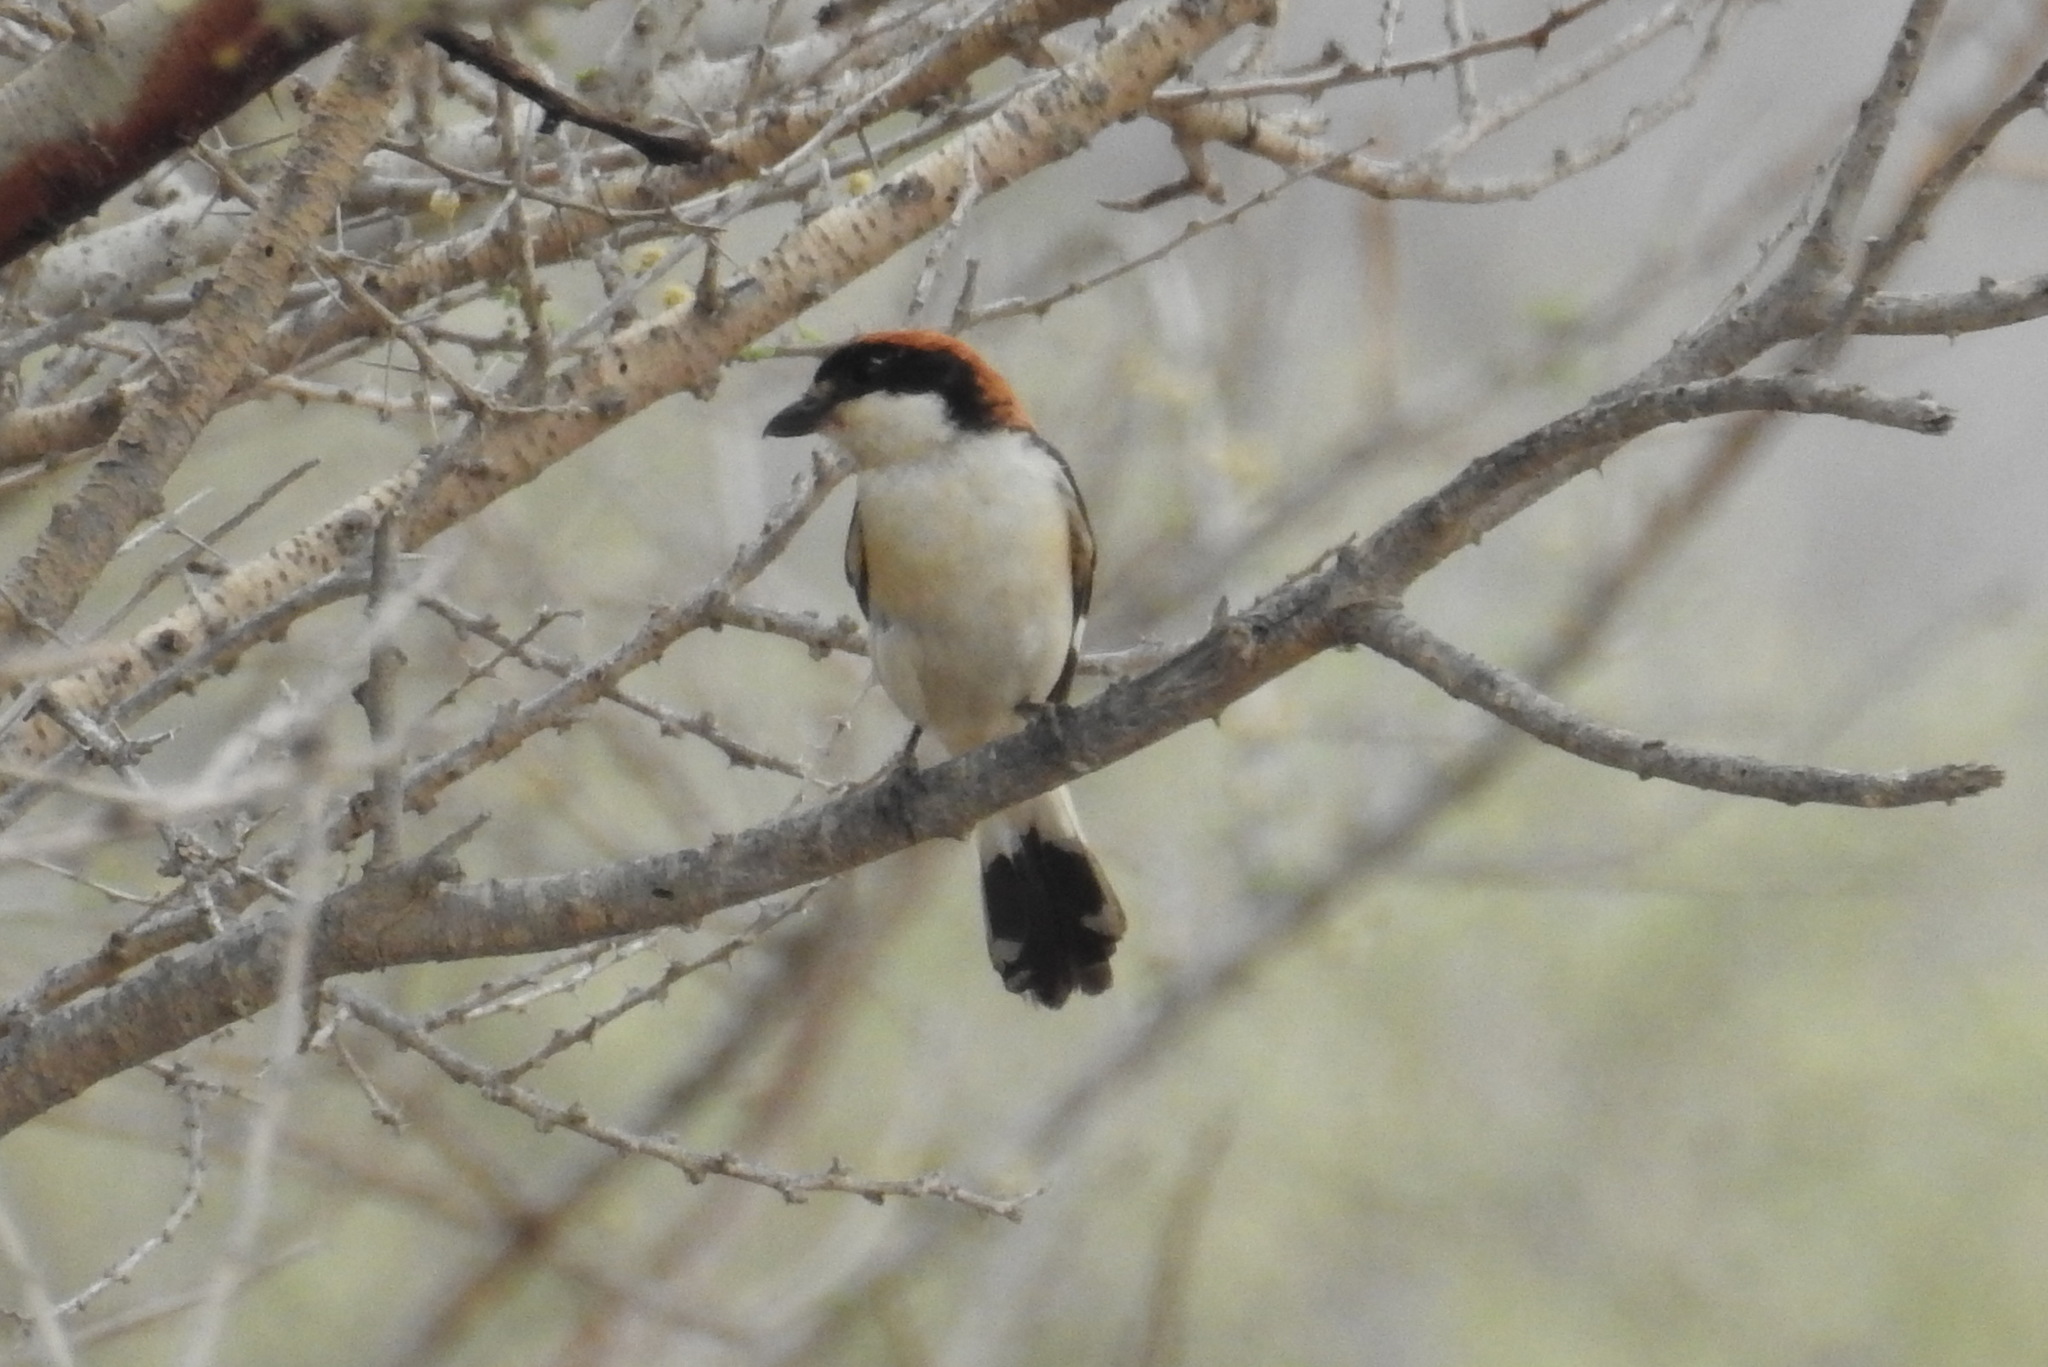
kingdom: Animalia
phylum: Chordata
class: Aves
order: Passeriformes
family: Laniidae
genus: Lanius
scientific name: Lanius senator
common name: Woodchat shrike
